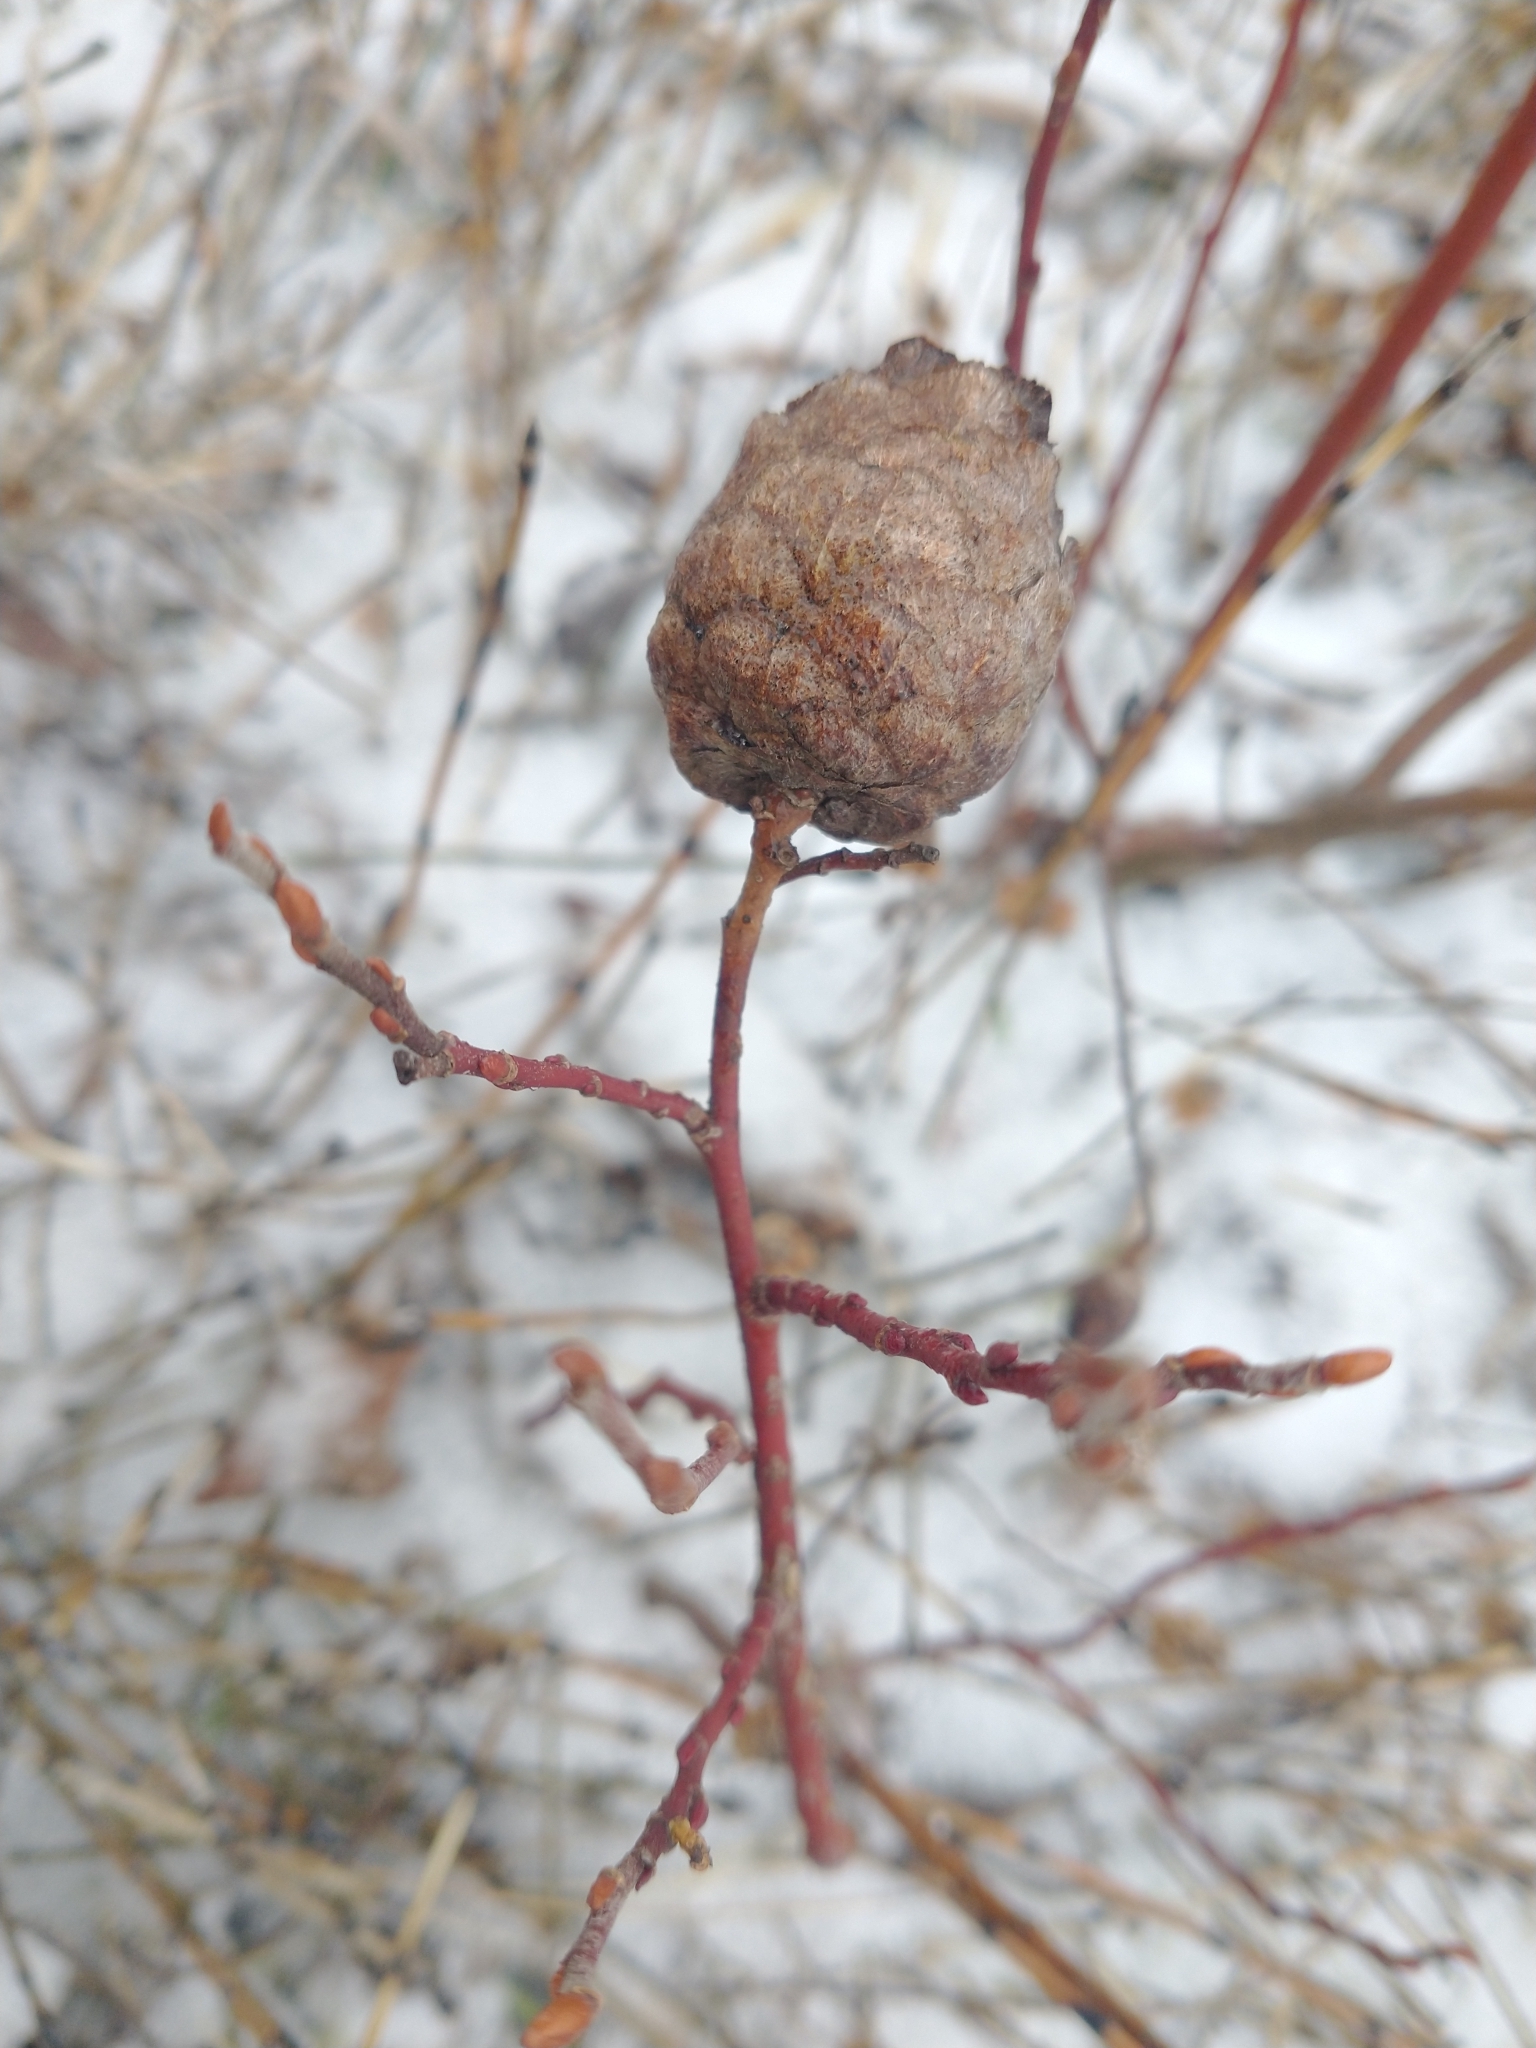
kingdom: Animalia
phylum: Arthropoda
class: Insecta
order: Diptera
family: Cecidomyiidae
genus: Rabdophaga
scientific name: Rabdophaga strobiloides
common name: Willow pinecone gall midge
